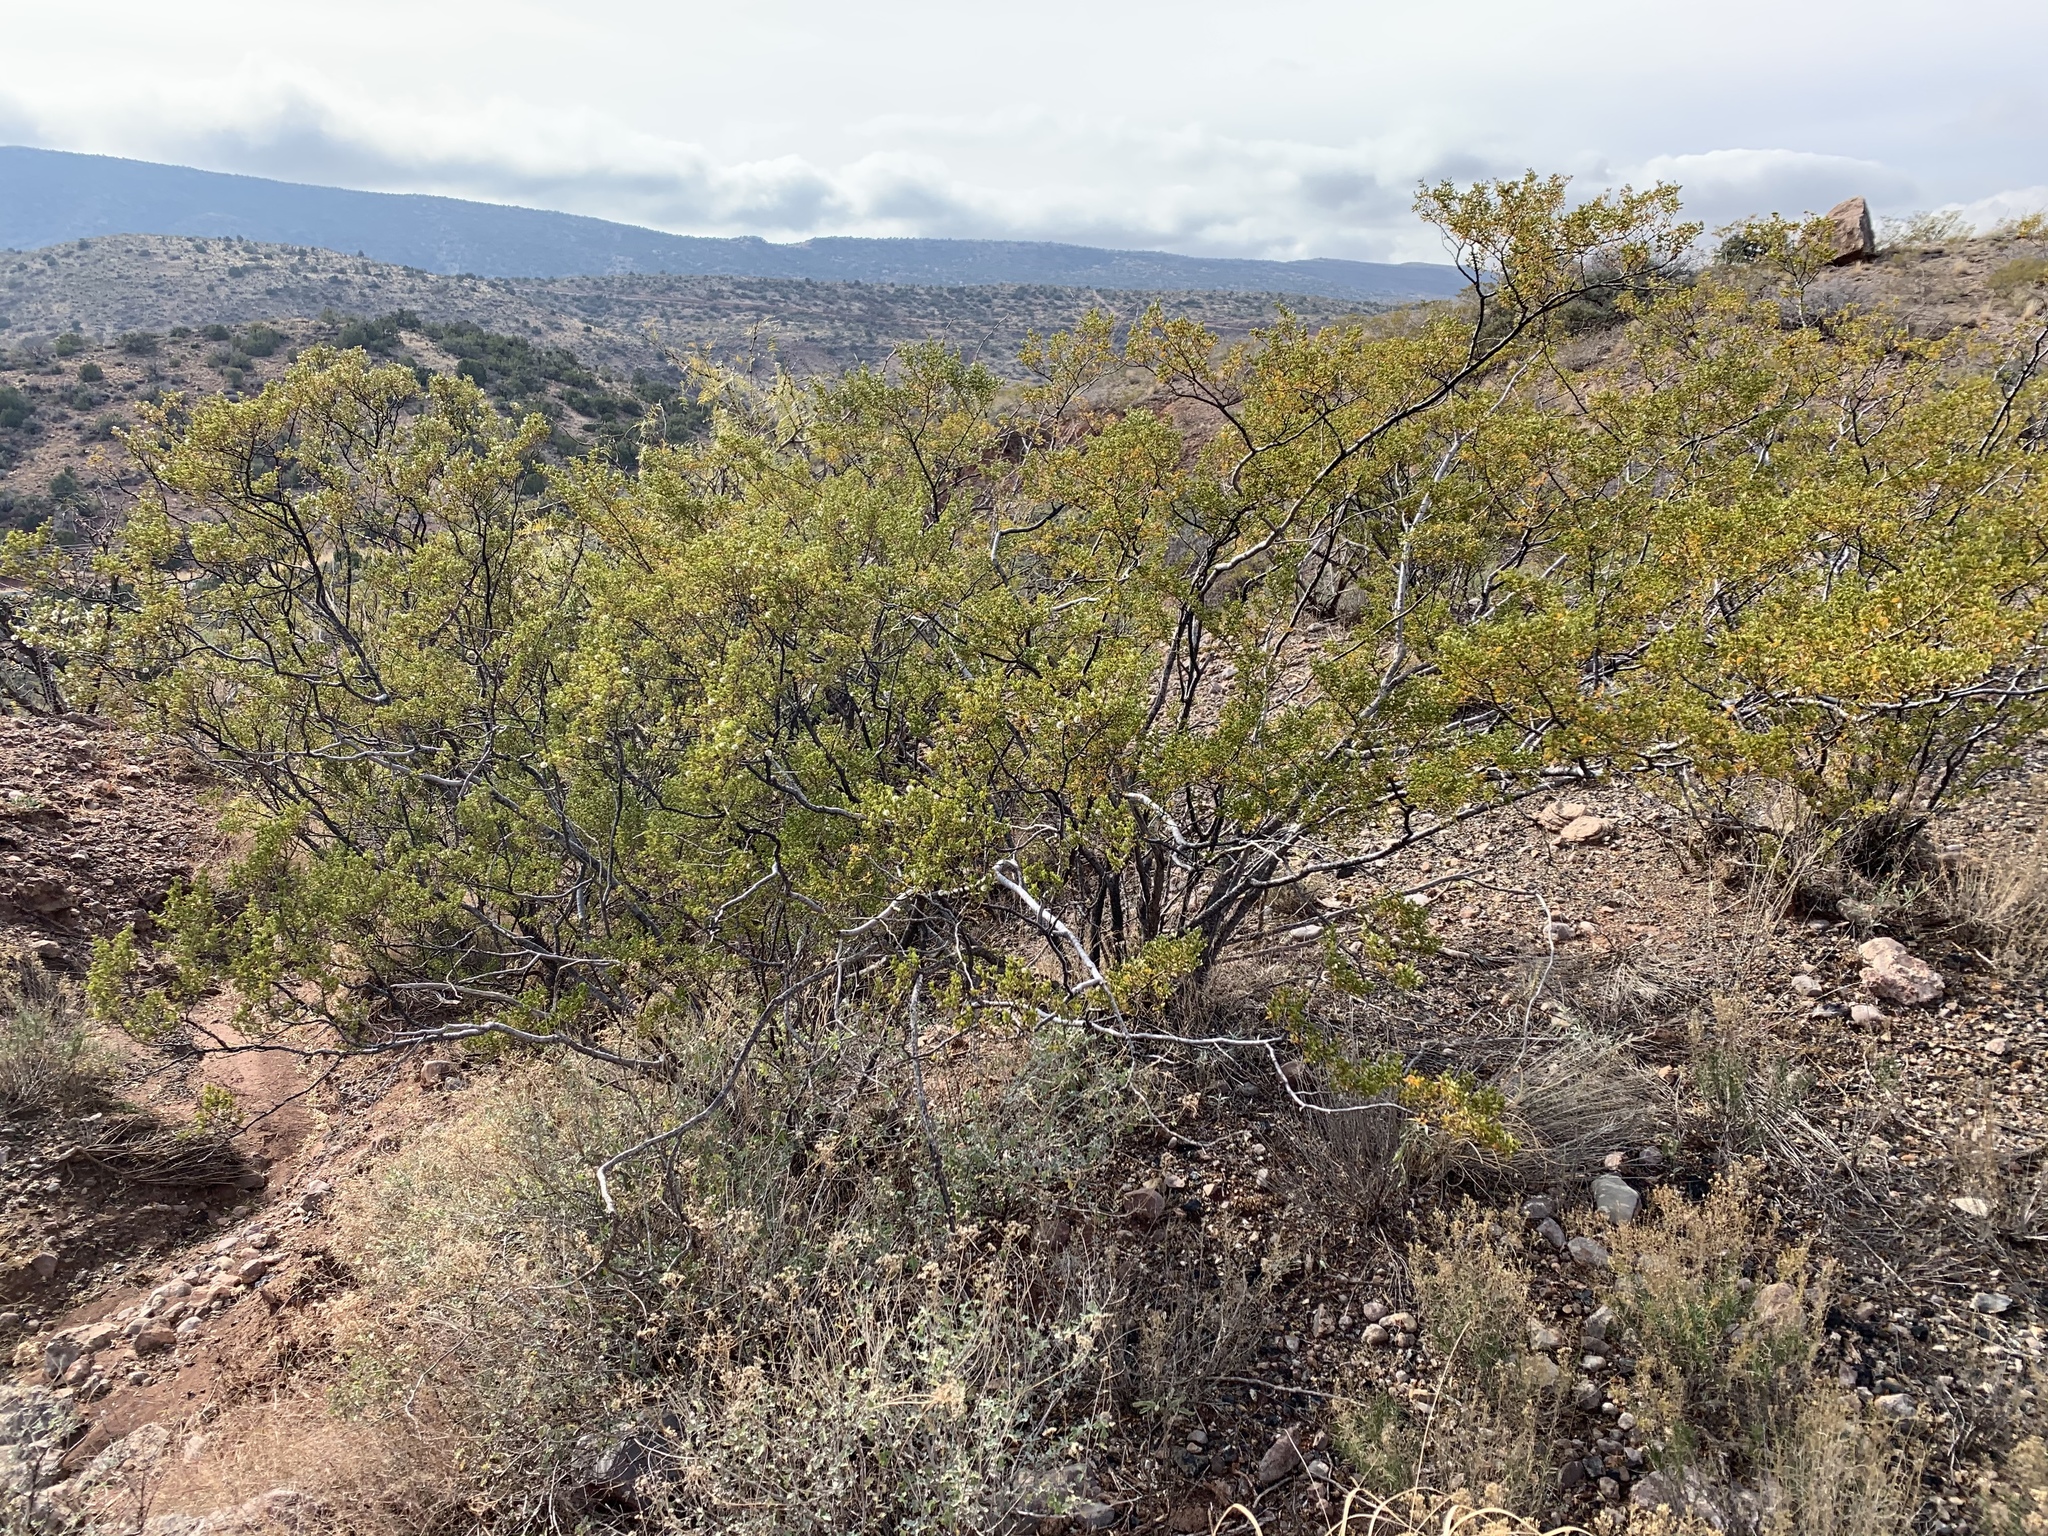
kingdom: Plantae
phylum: Tracheophyta
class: Magnoliopsida
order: Zygophyllales
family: Zygophyllaceae
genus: Larrea
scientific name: Larrea tridentata
